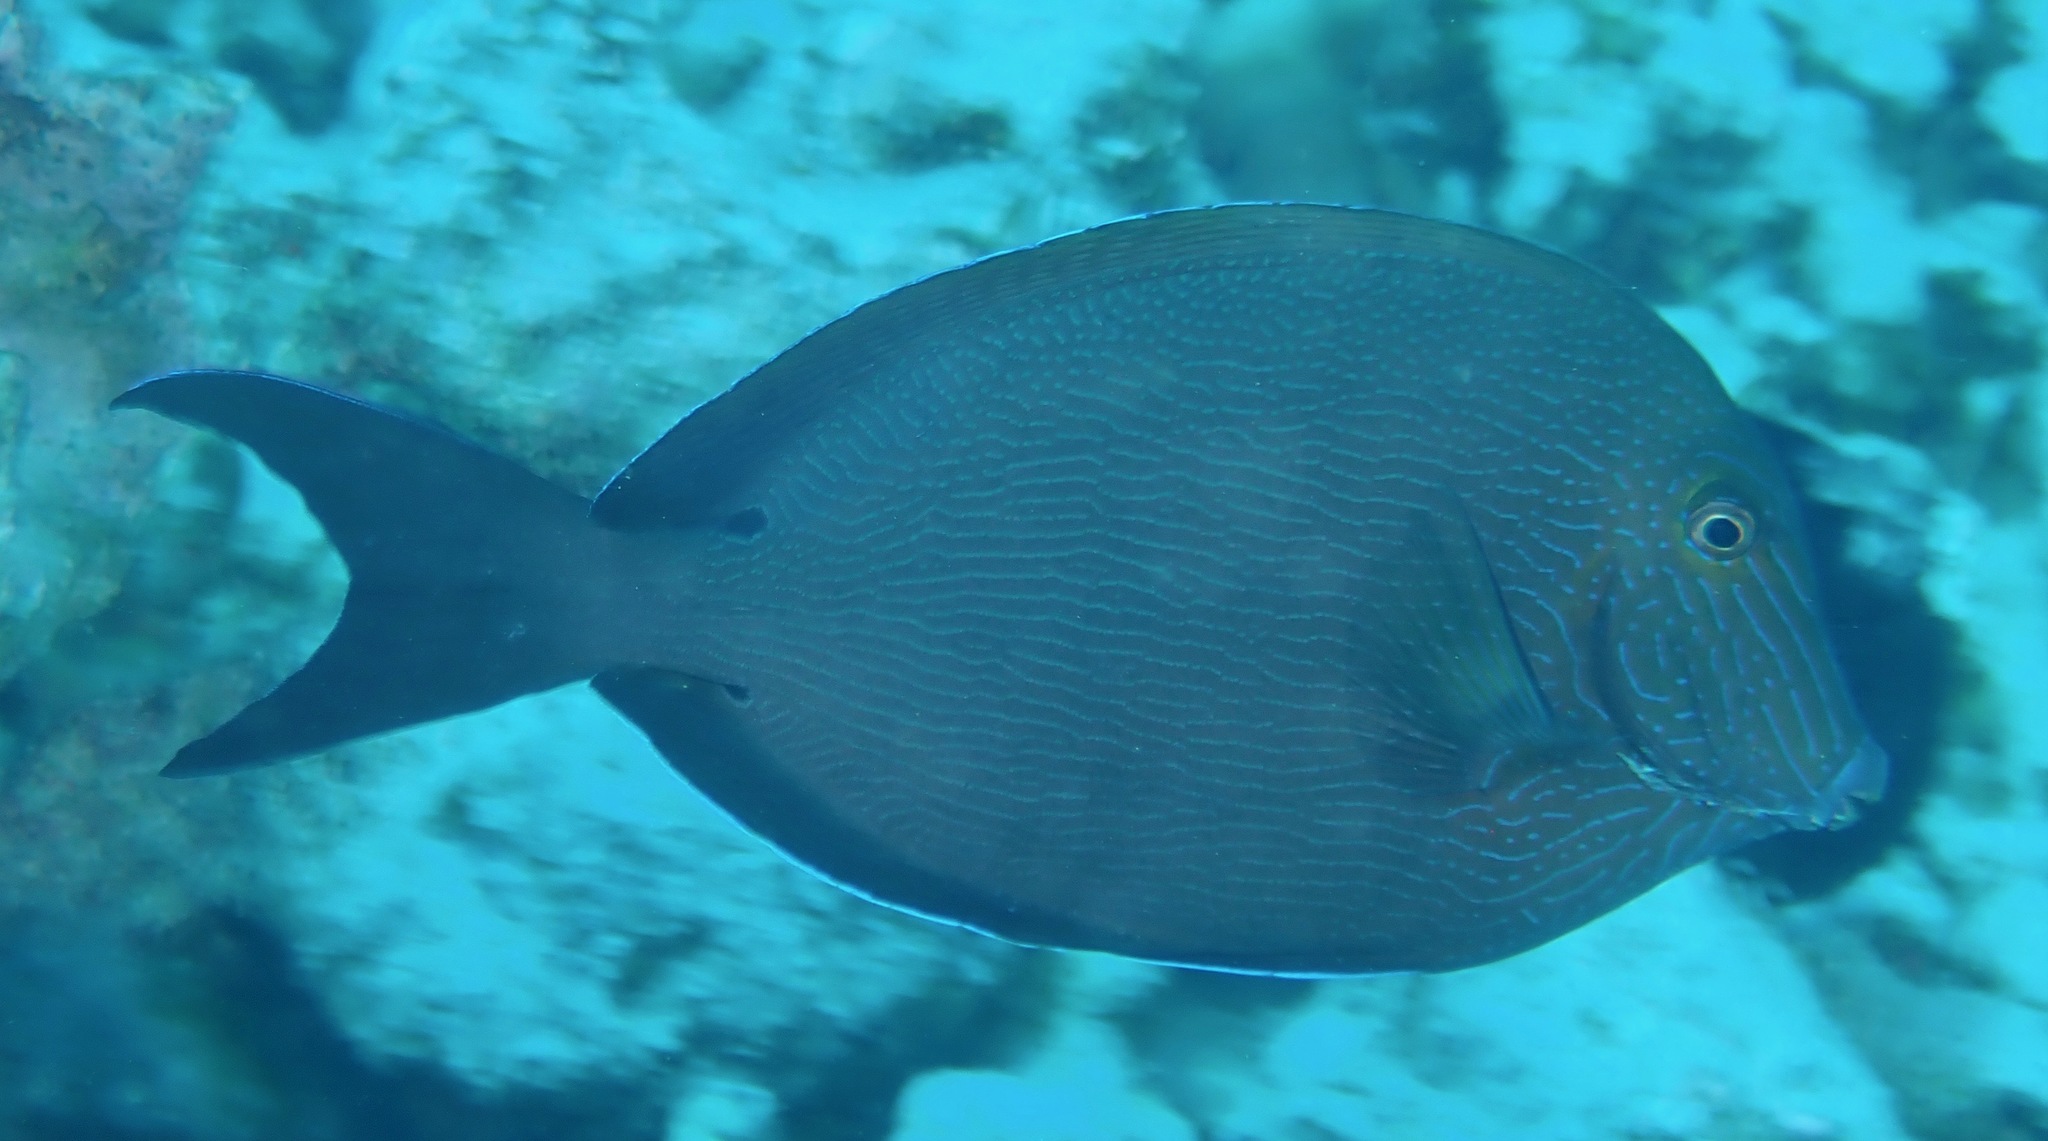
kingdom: Animalia
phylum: Chordata
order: Perciformes
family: Acanthuridae
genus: Acanthurus
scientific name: Acanthurus nigroris
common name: Bluelined surgeonfish
